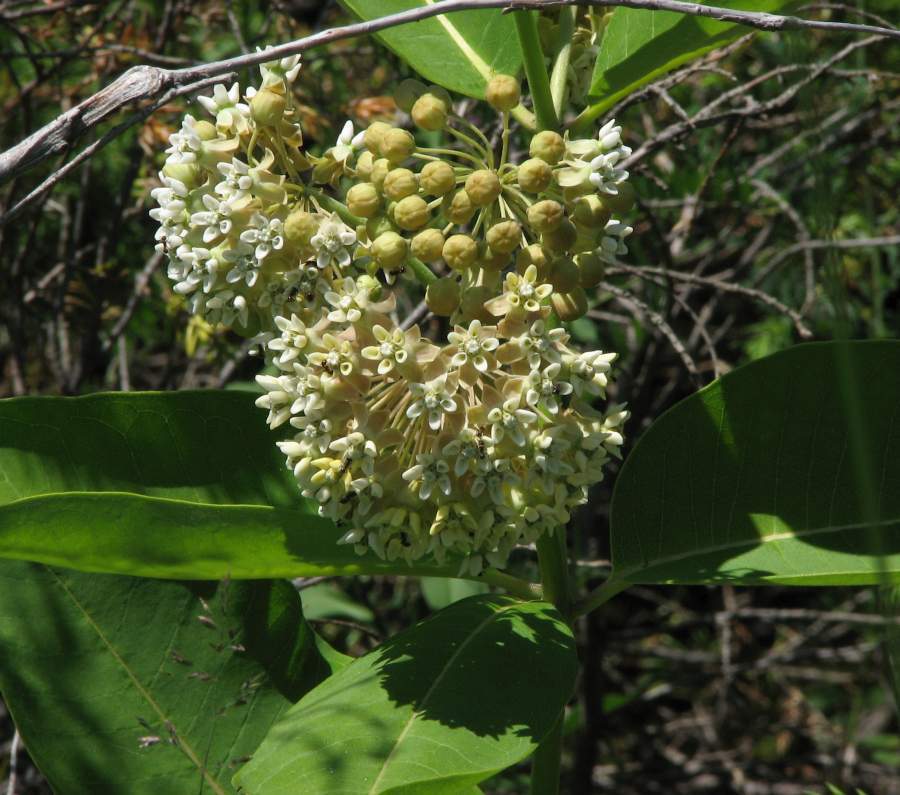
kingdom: Plantae
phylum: Tracheophyta
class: Magnoliopsida
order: Gentianales
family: Apocynaceae
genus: Asclepias
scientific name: Asclepias syriaca
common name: Common milkweed
